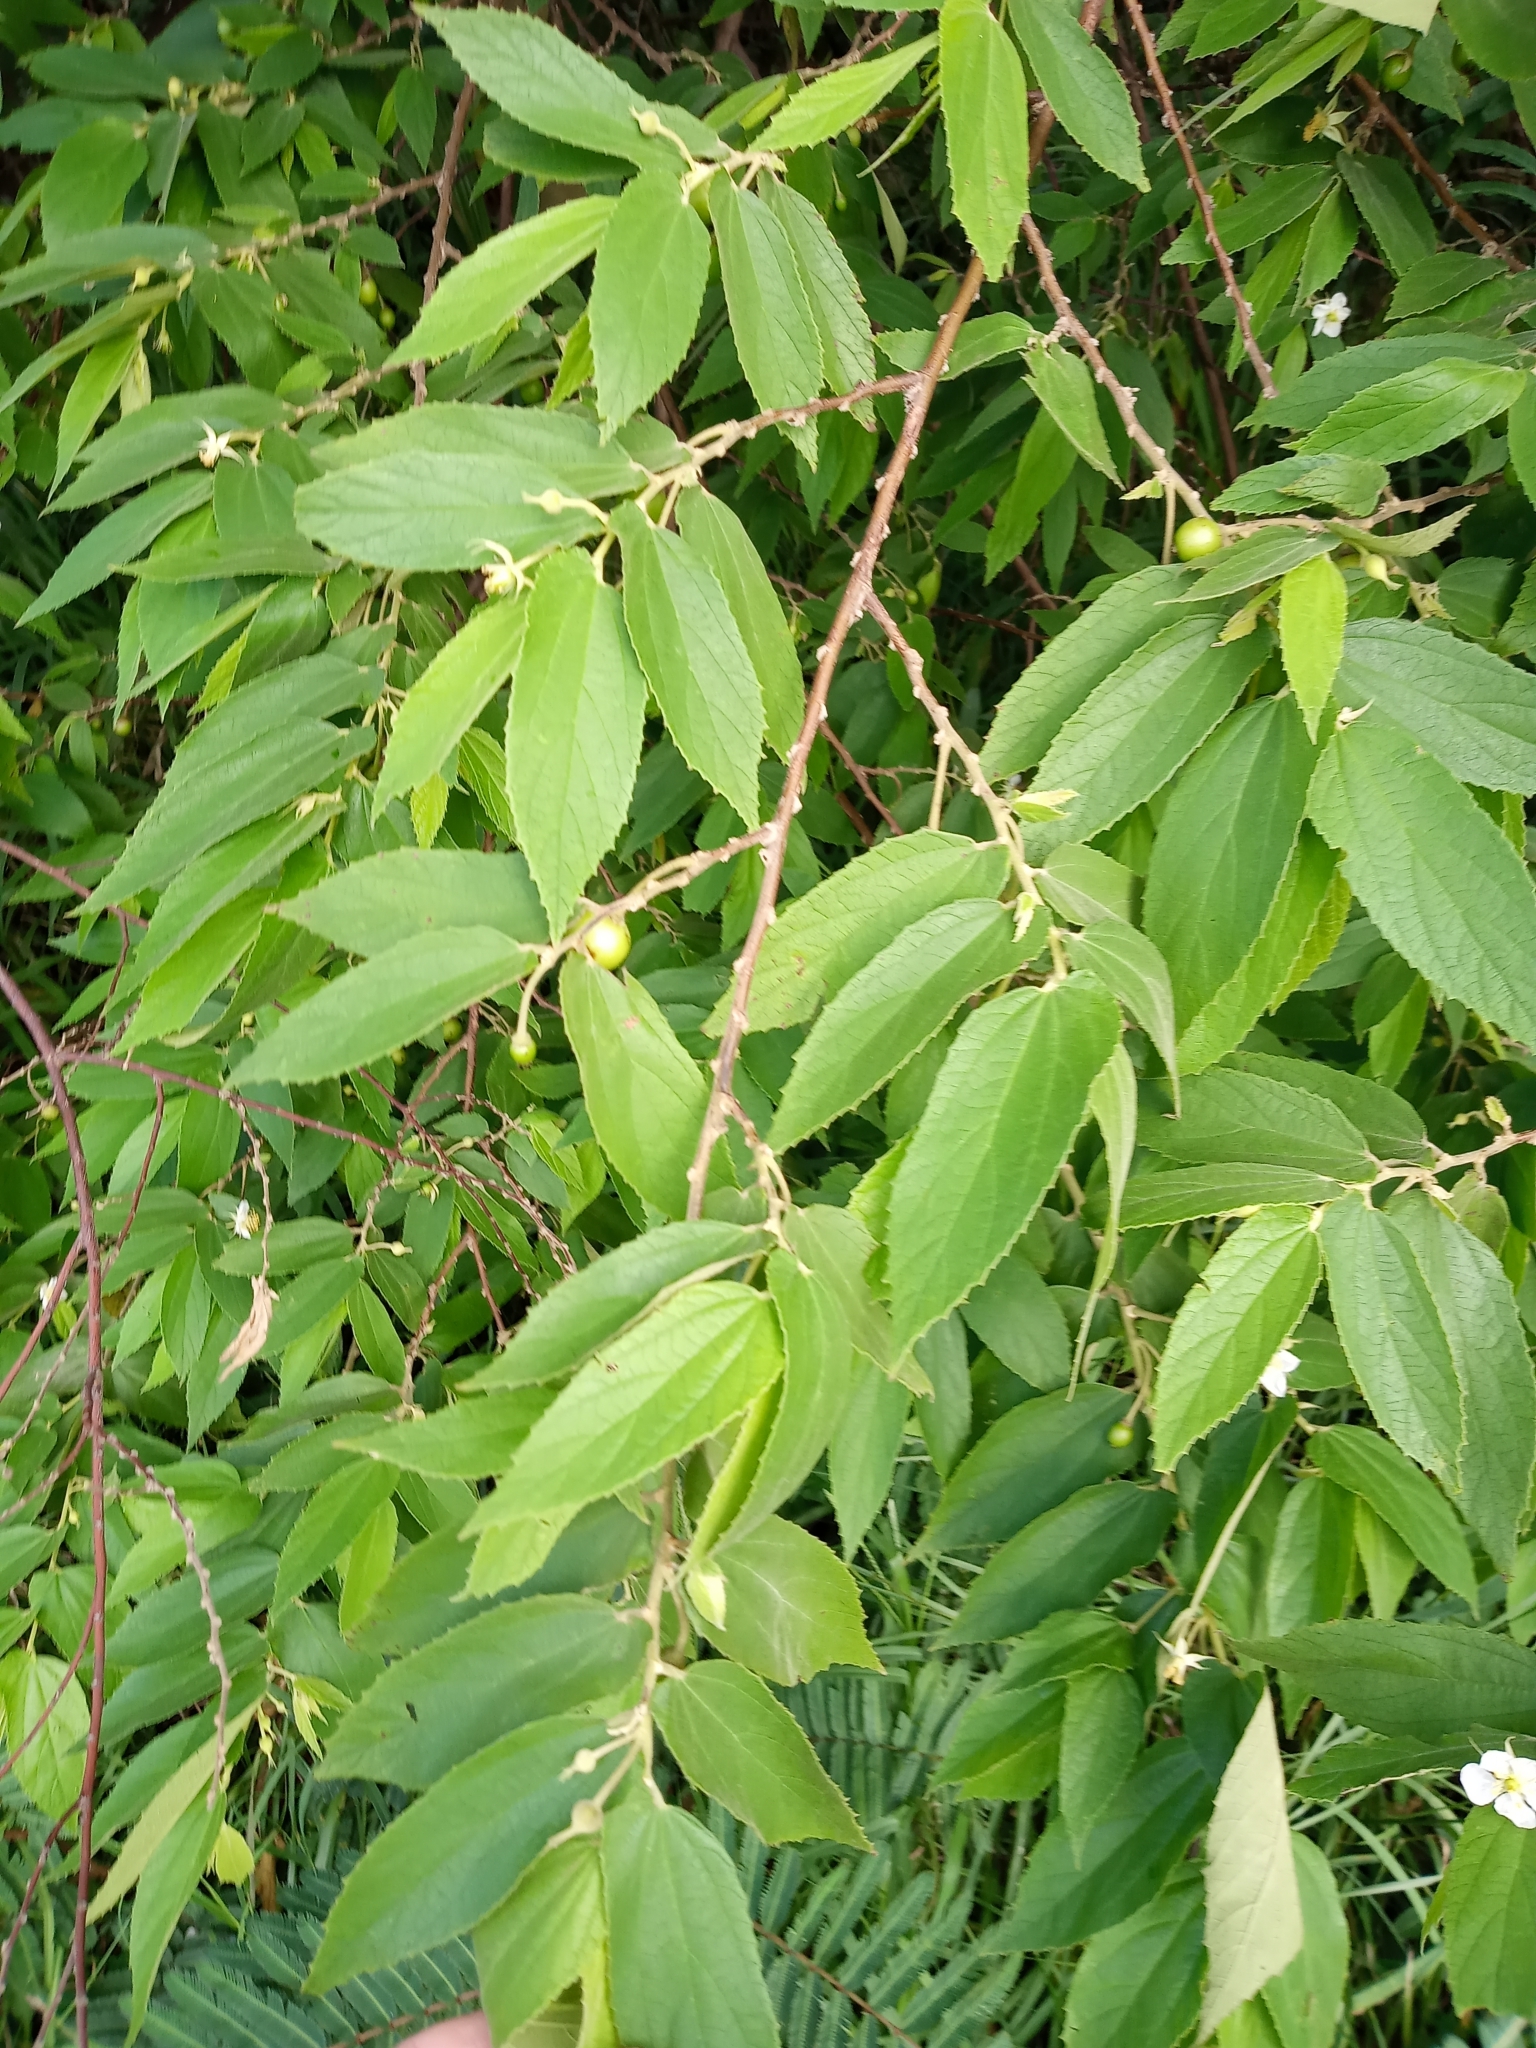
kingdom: Plantae
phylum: Tracheophyta
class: Magnoliopsida
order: Malvales
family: Muntingiaceae
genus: Muntingia
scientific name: Muntingia calabura
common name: Strawberrytree
